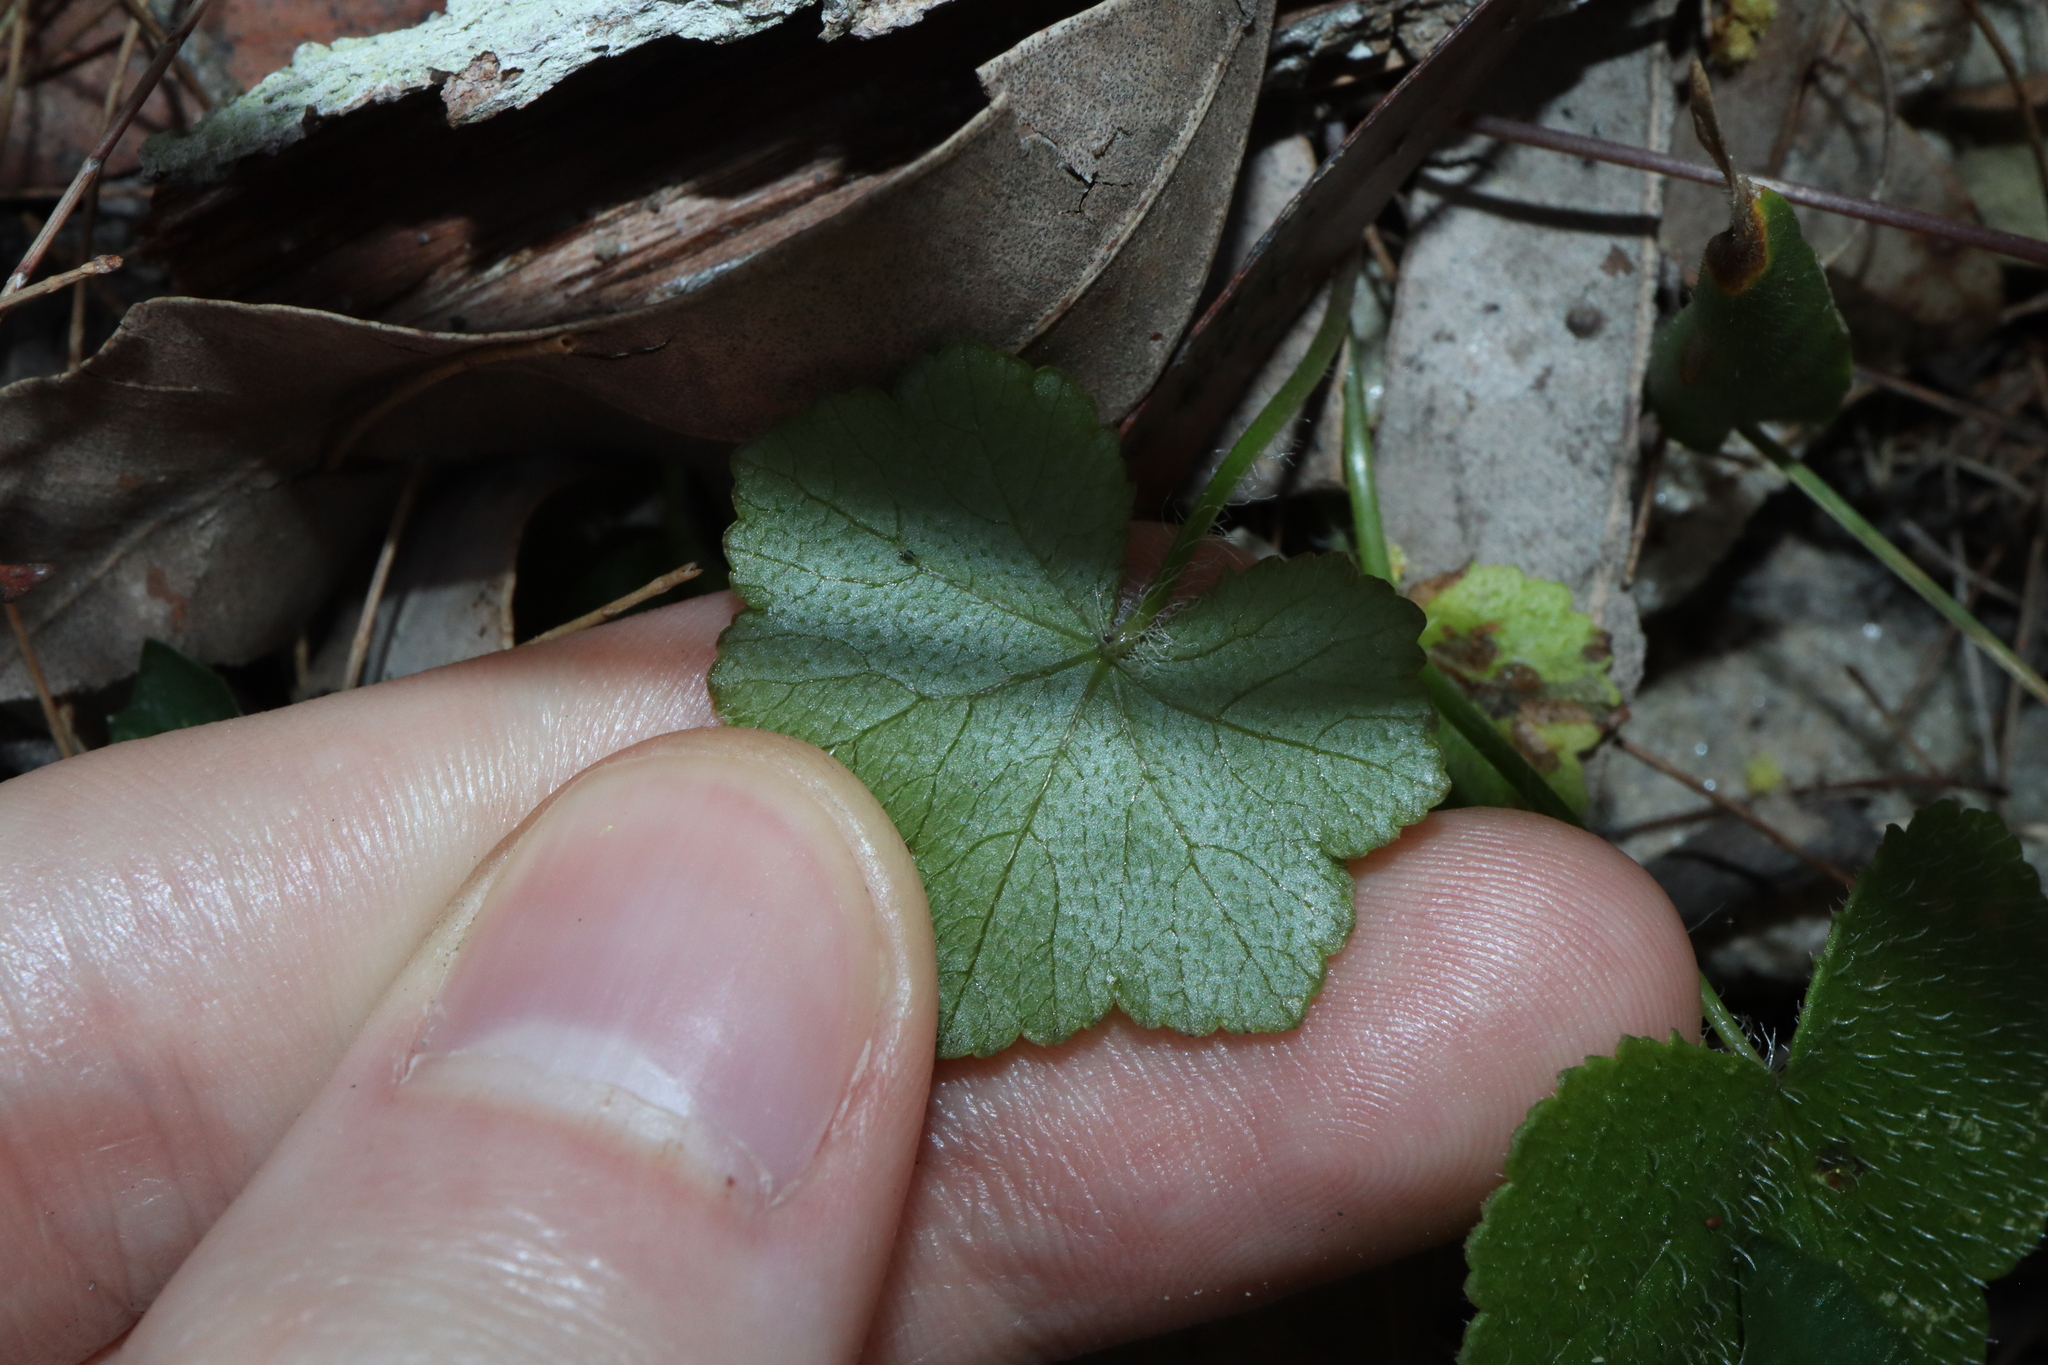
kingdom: Plantae
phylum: Tracheophyta
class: Magnoliopsida
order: Apiales
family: Araliaceae
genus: Hydrocotyle
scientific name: Hydrocotyle hirta
